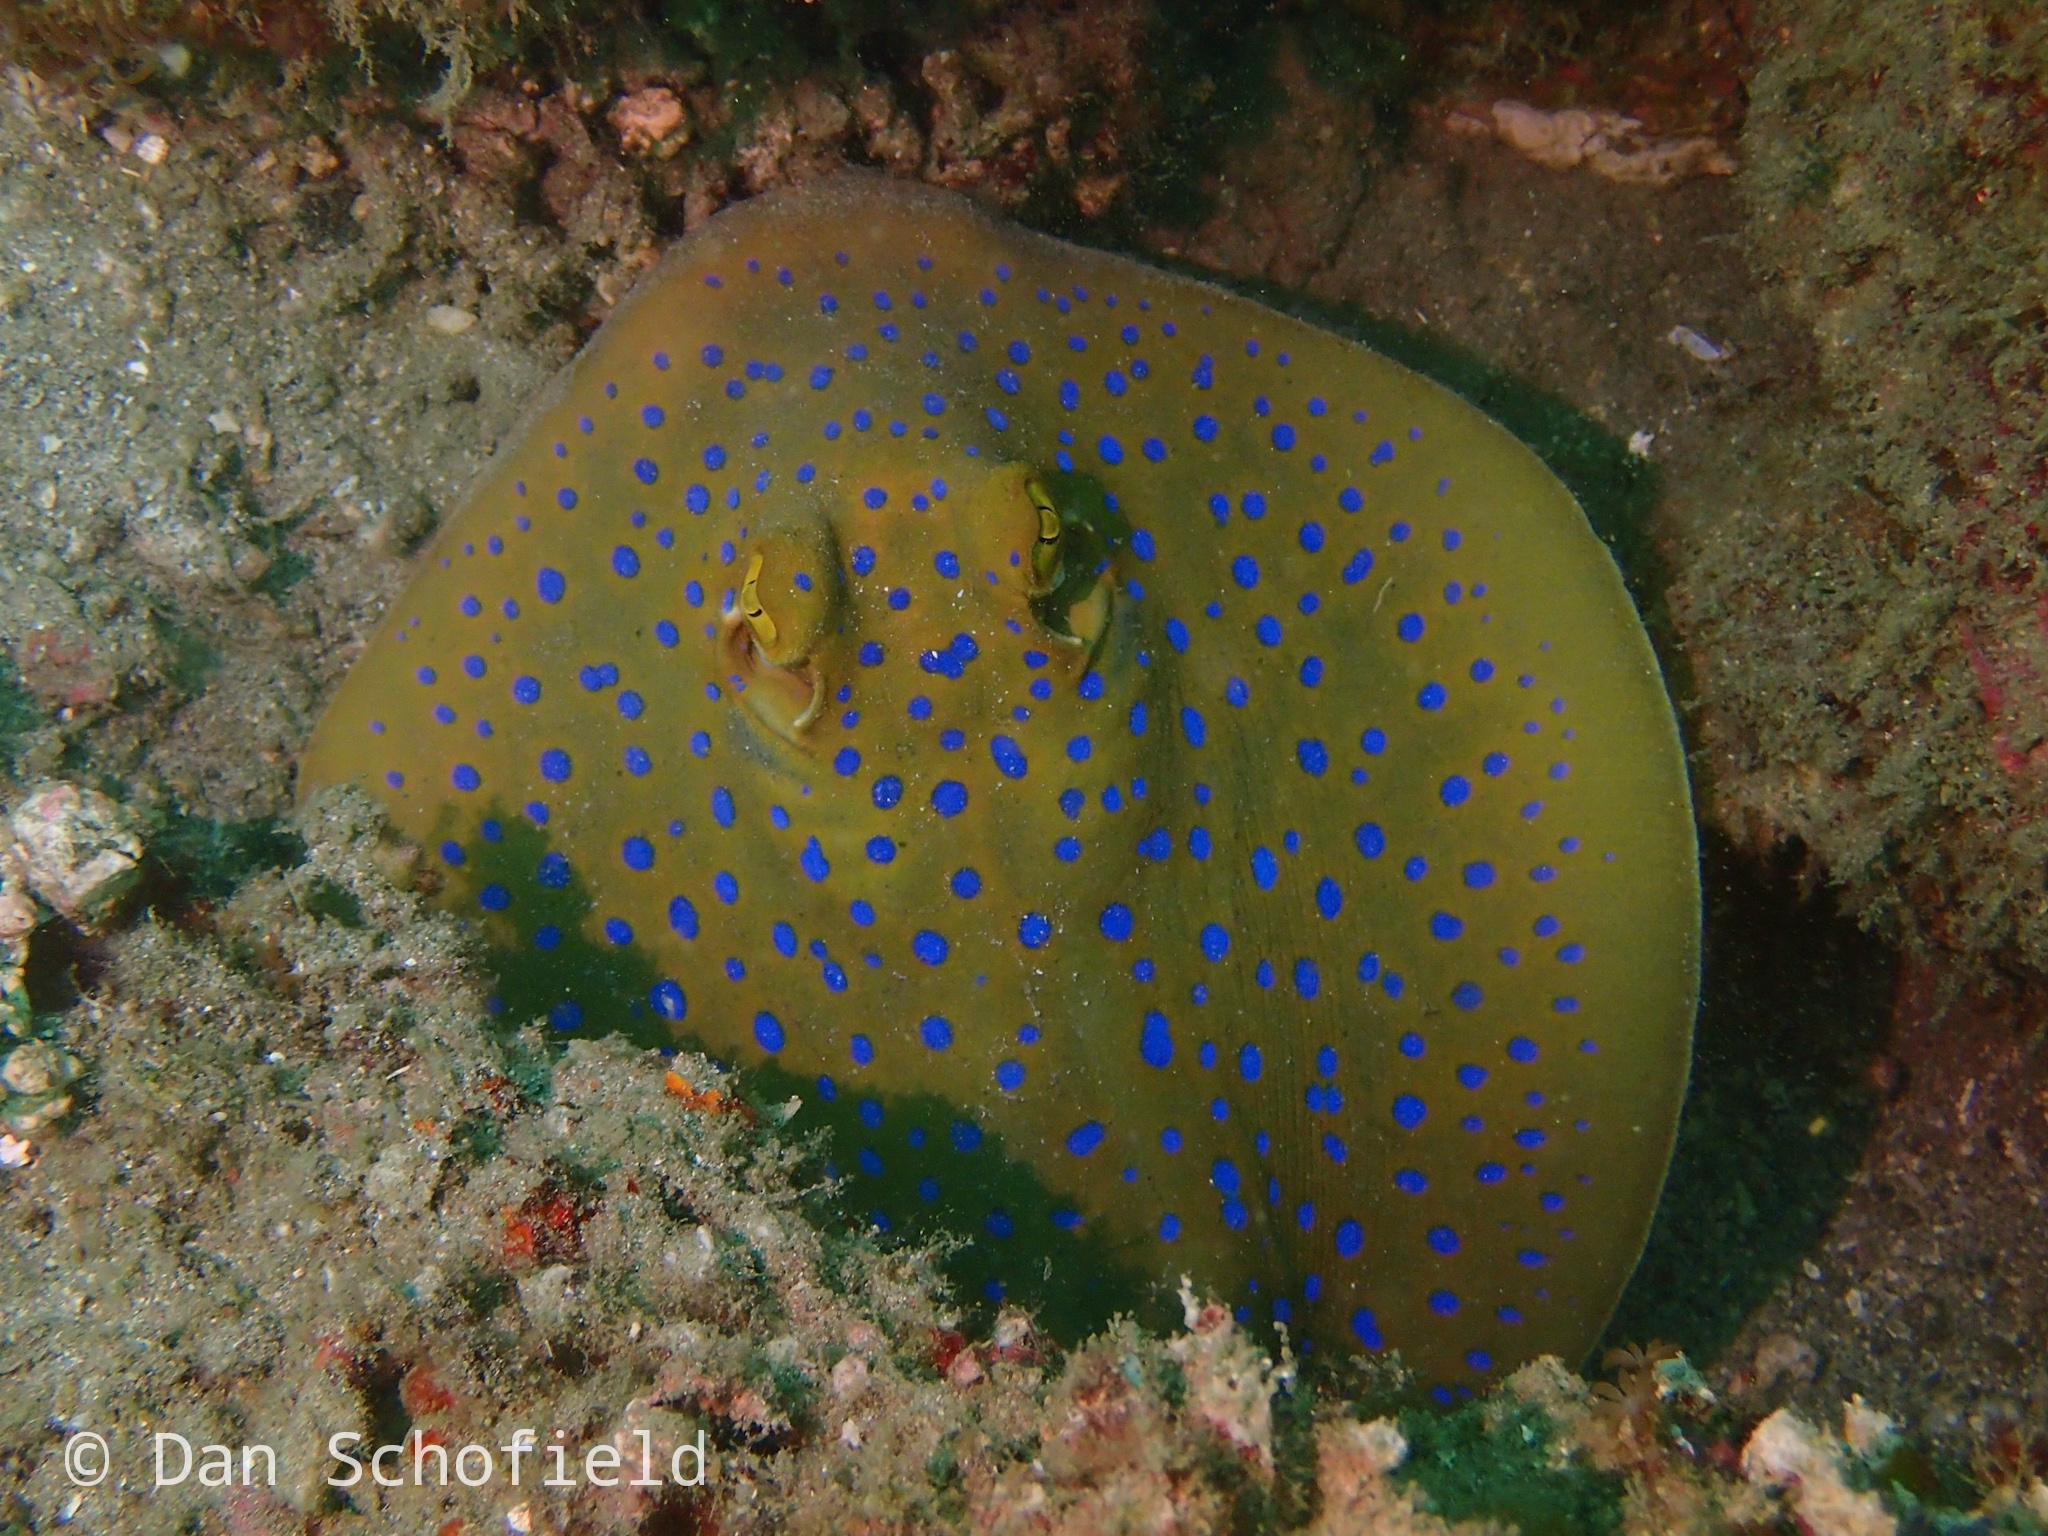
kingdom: Animalia
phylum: Chordata
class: Elasmobranchii
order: Myliobatiformes
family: Dasyatidae
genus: Taeniura
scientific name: Taeniura lymma
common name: Bluespotted ribbontail ray
